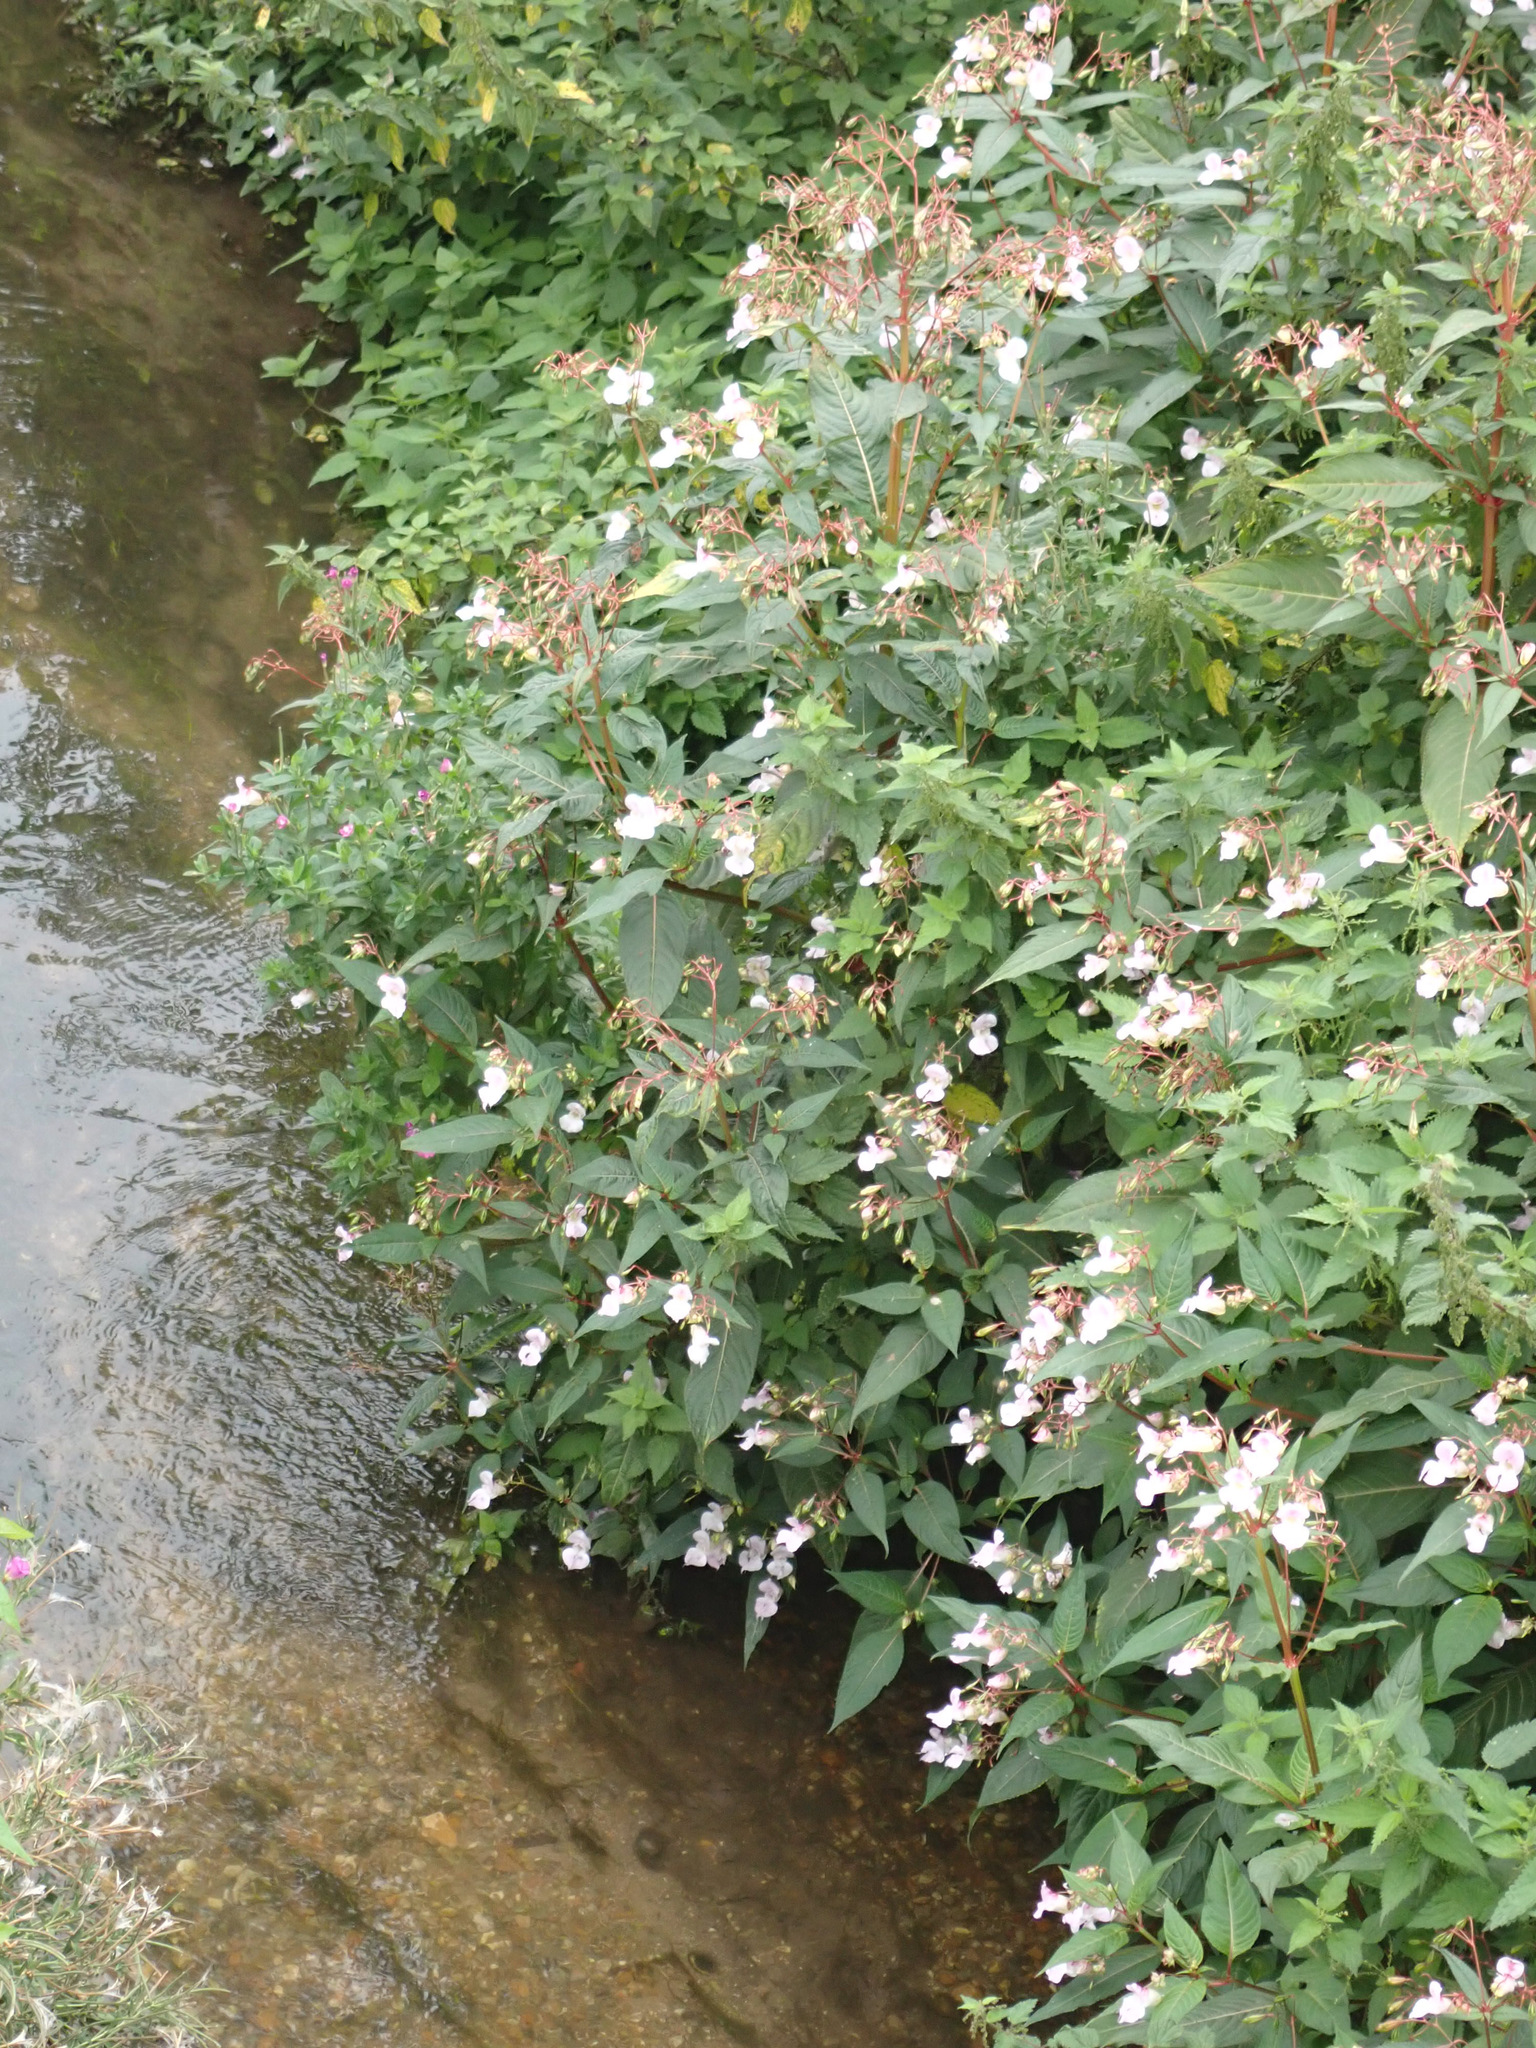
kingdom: Plantae
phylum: Tracheophyta
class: Magnoliopsida
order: Ericales
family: Balsaminaceae
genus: Impatiens
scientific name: Impatiens glandulifera
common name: Himalayan balsam
